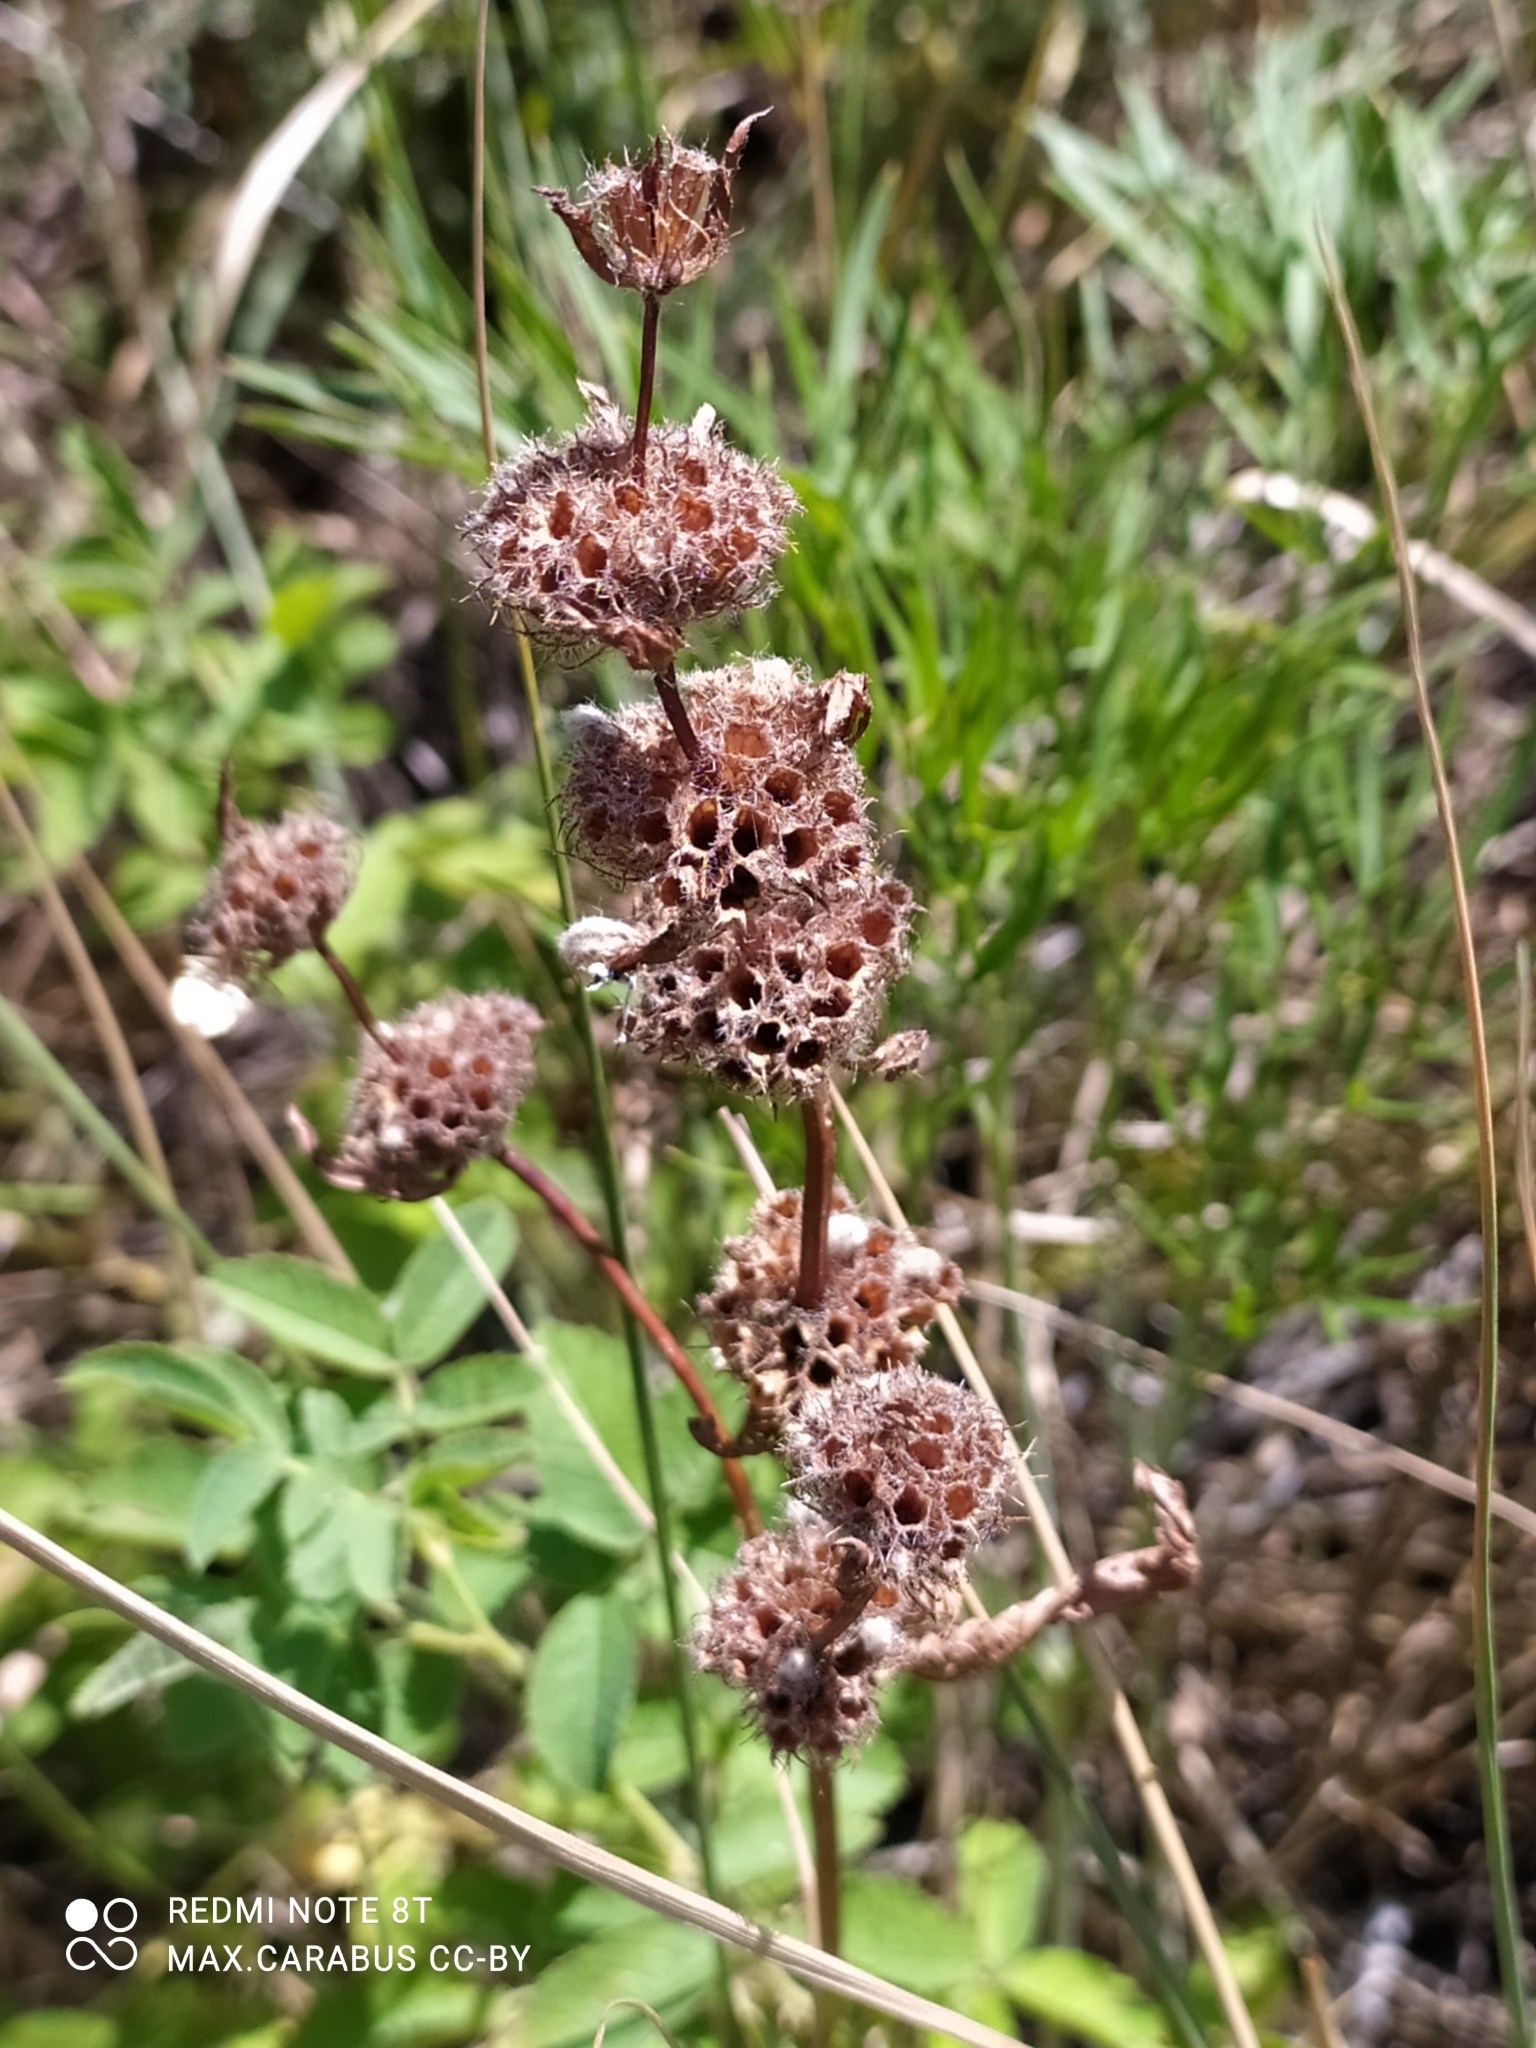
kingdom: Plantae
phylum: Tracheophyta
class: Magnoliopsida
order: Lamiales
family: Lamiaceae
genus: Phlomoides
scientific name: Phlomoides tuberosa
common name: Tuberous jerusalem sage
